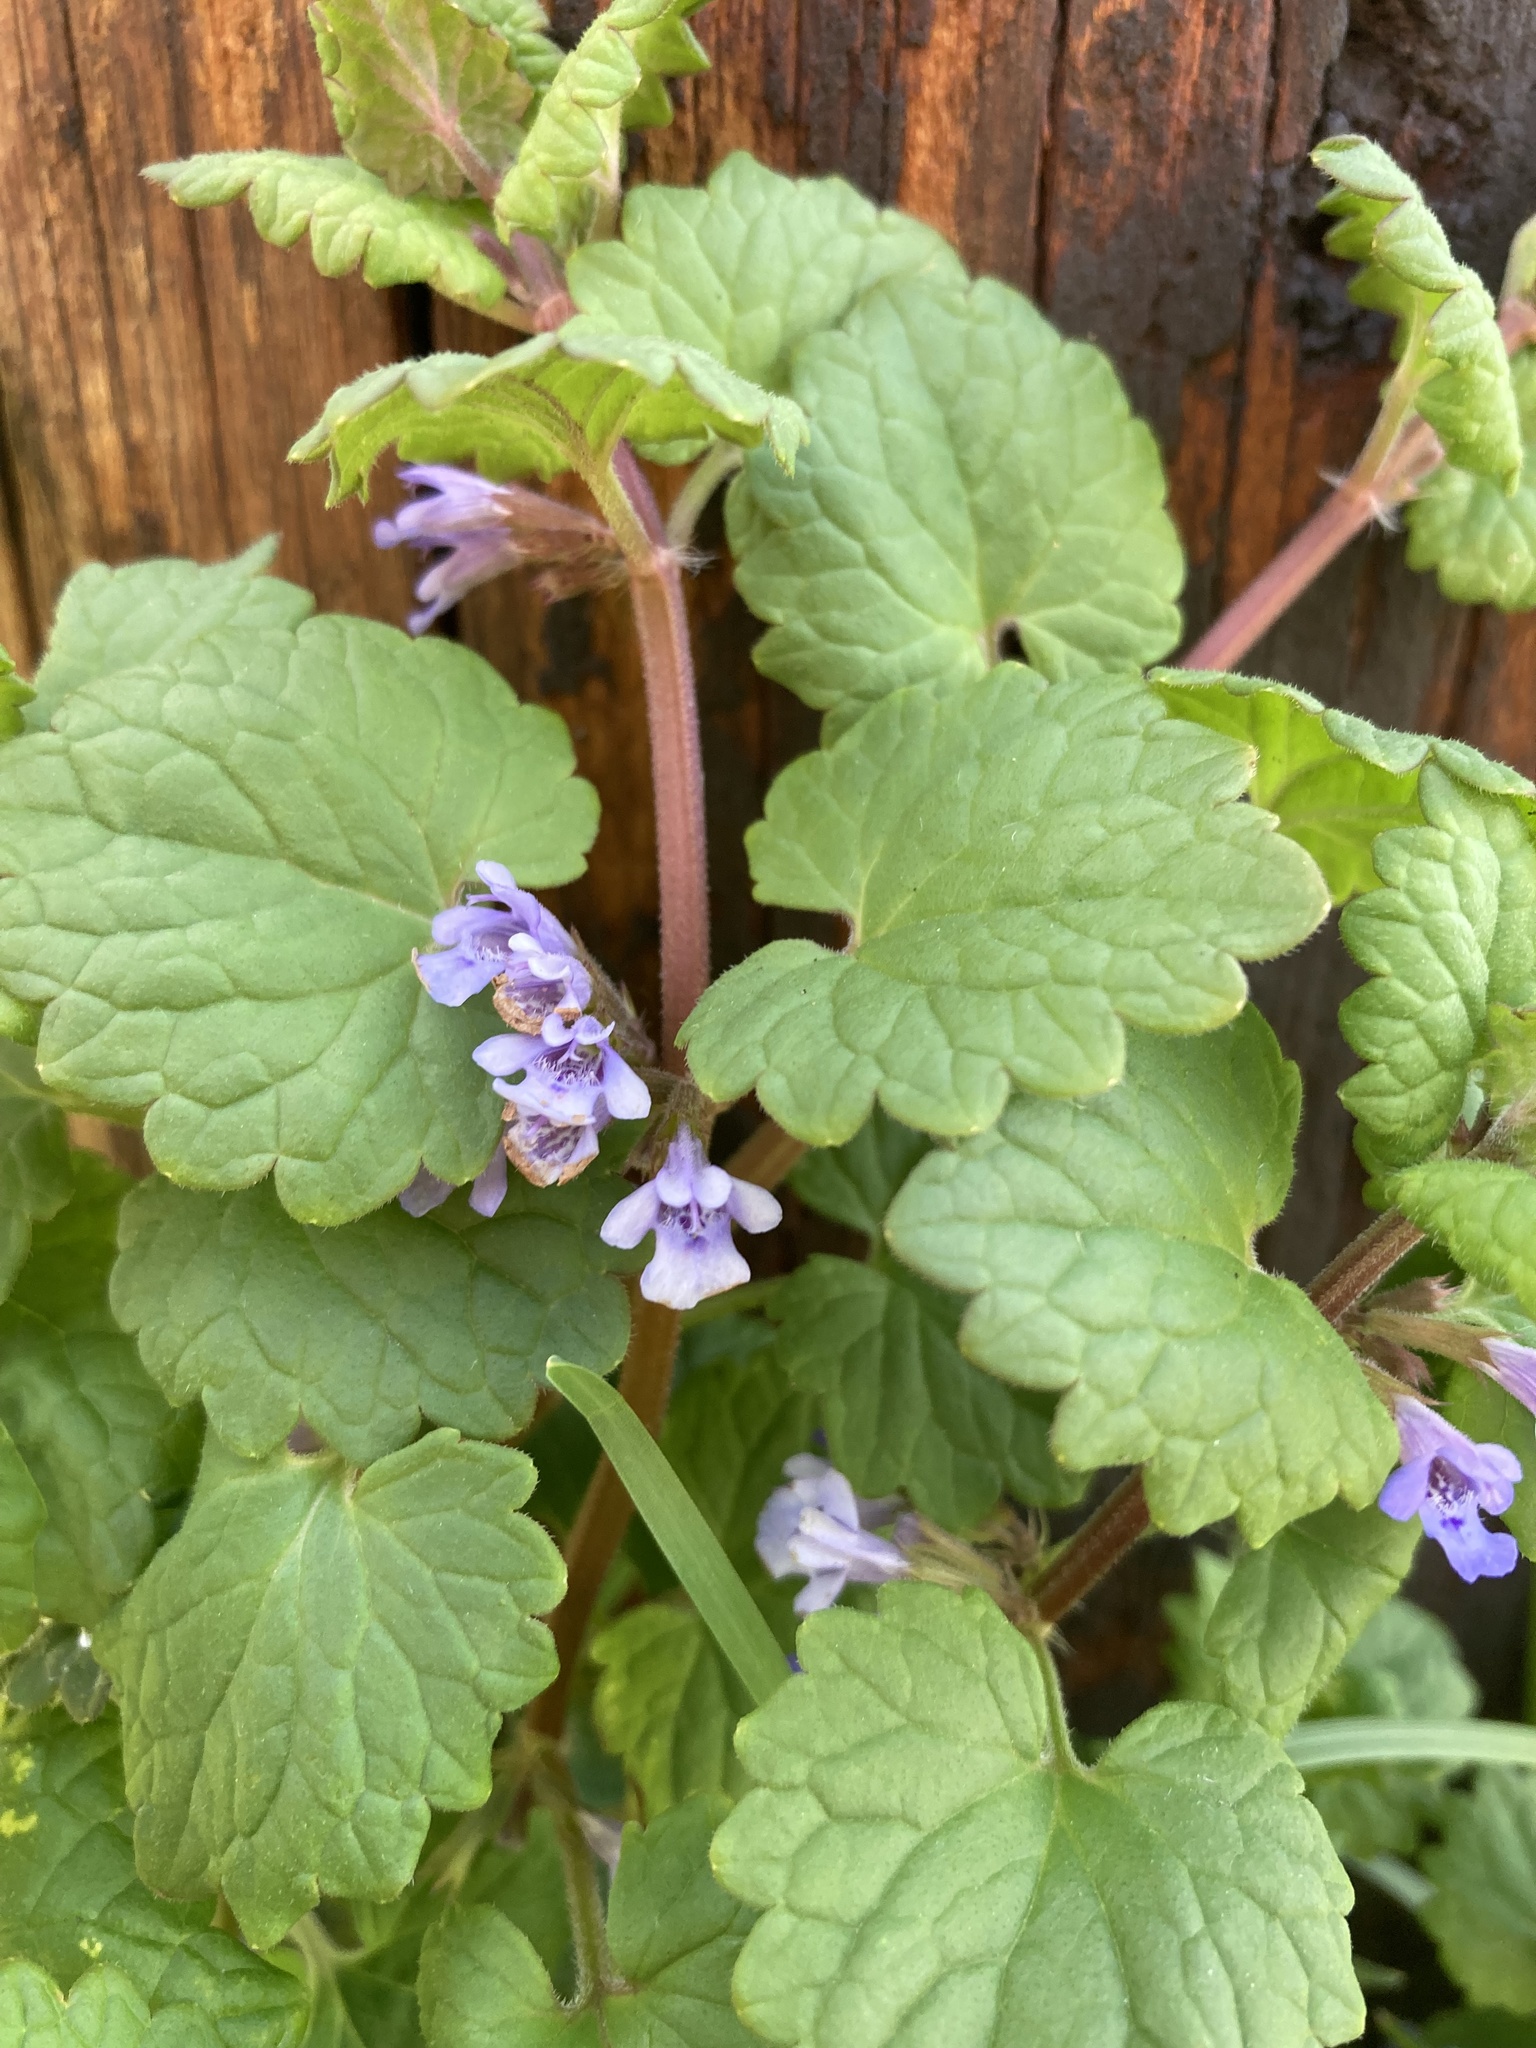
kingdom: Plantae
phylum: Tracheophyta
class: Magnoliopsida
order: Lamiales
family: Lamiaceae
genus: Glechoma
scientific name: Glechoma hederacea
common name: Ground ivy
